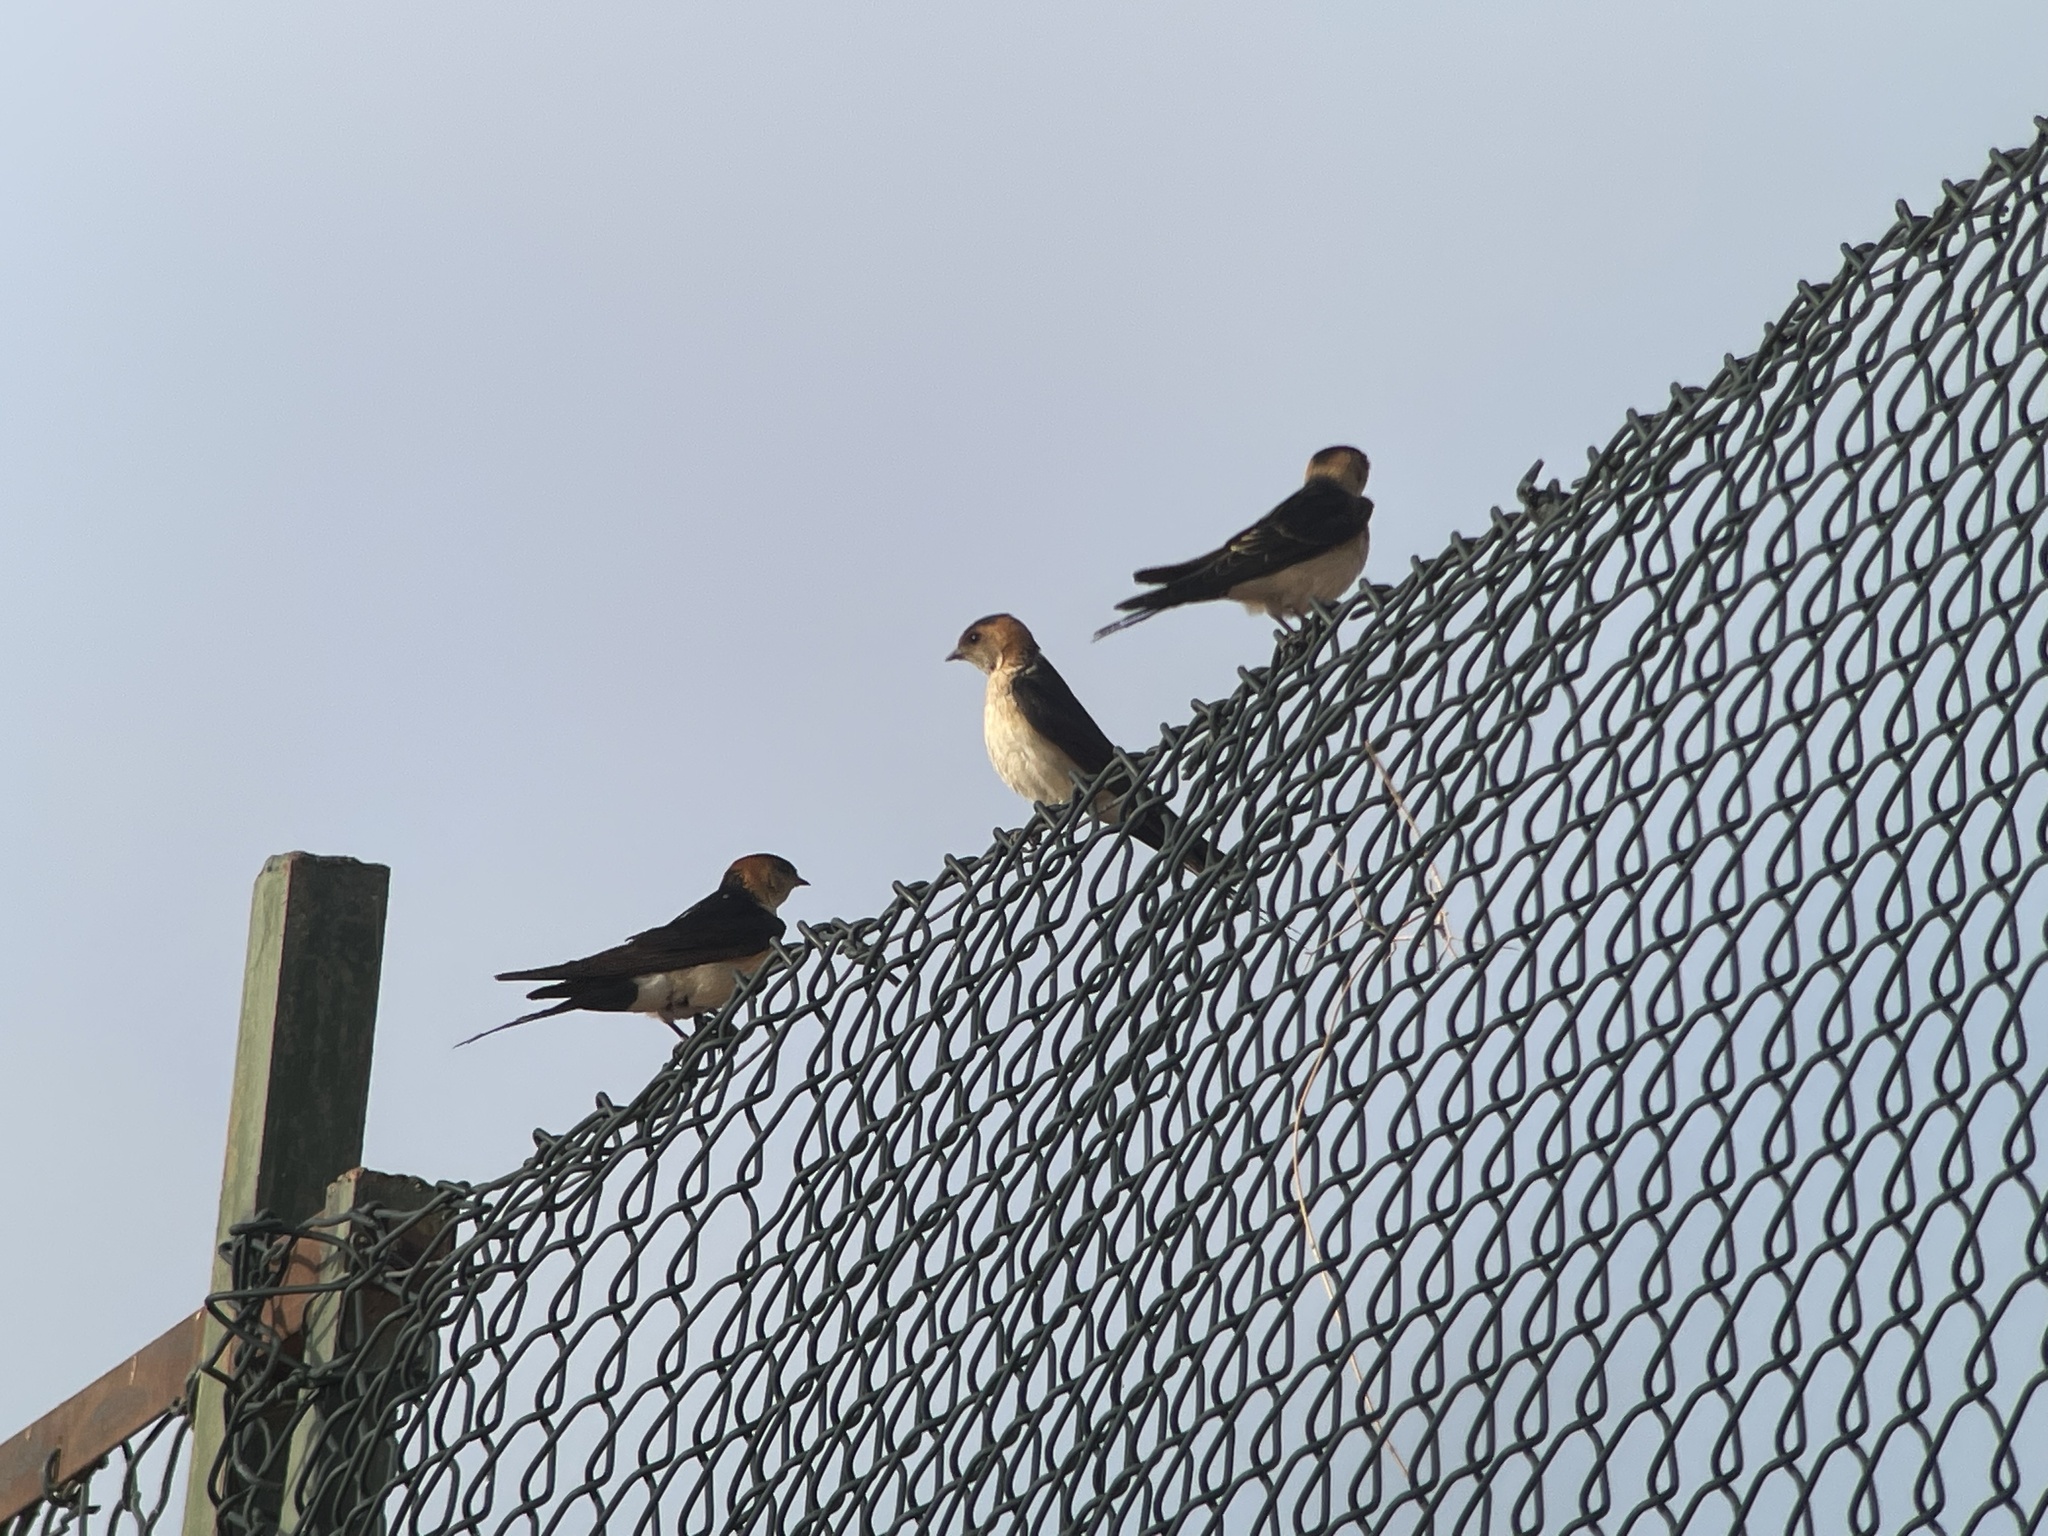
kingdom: Animalia
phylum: Chordata
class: Aves
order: Passeriformes
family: Hirundinidae
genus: Cecropis
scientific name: Cecropis daurica
